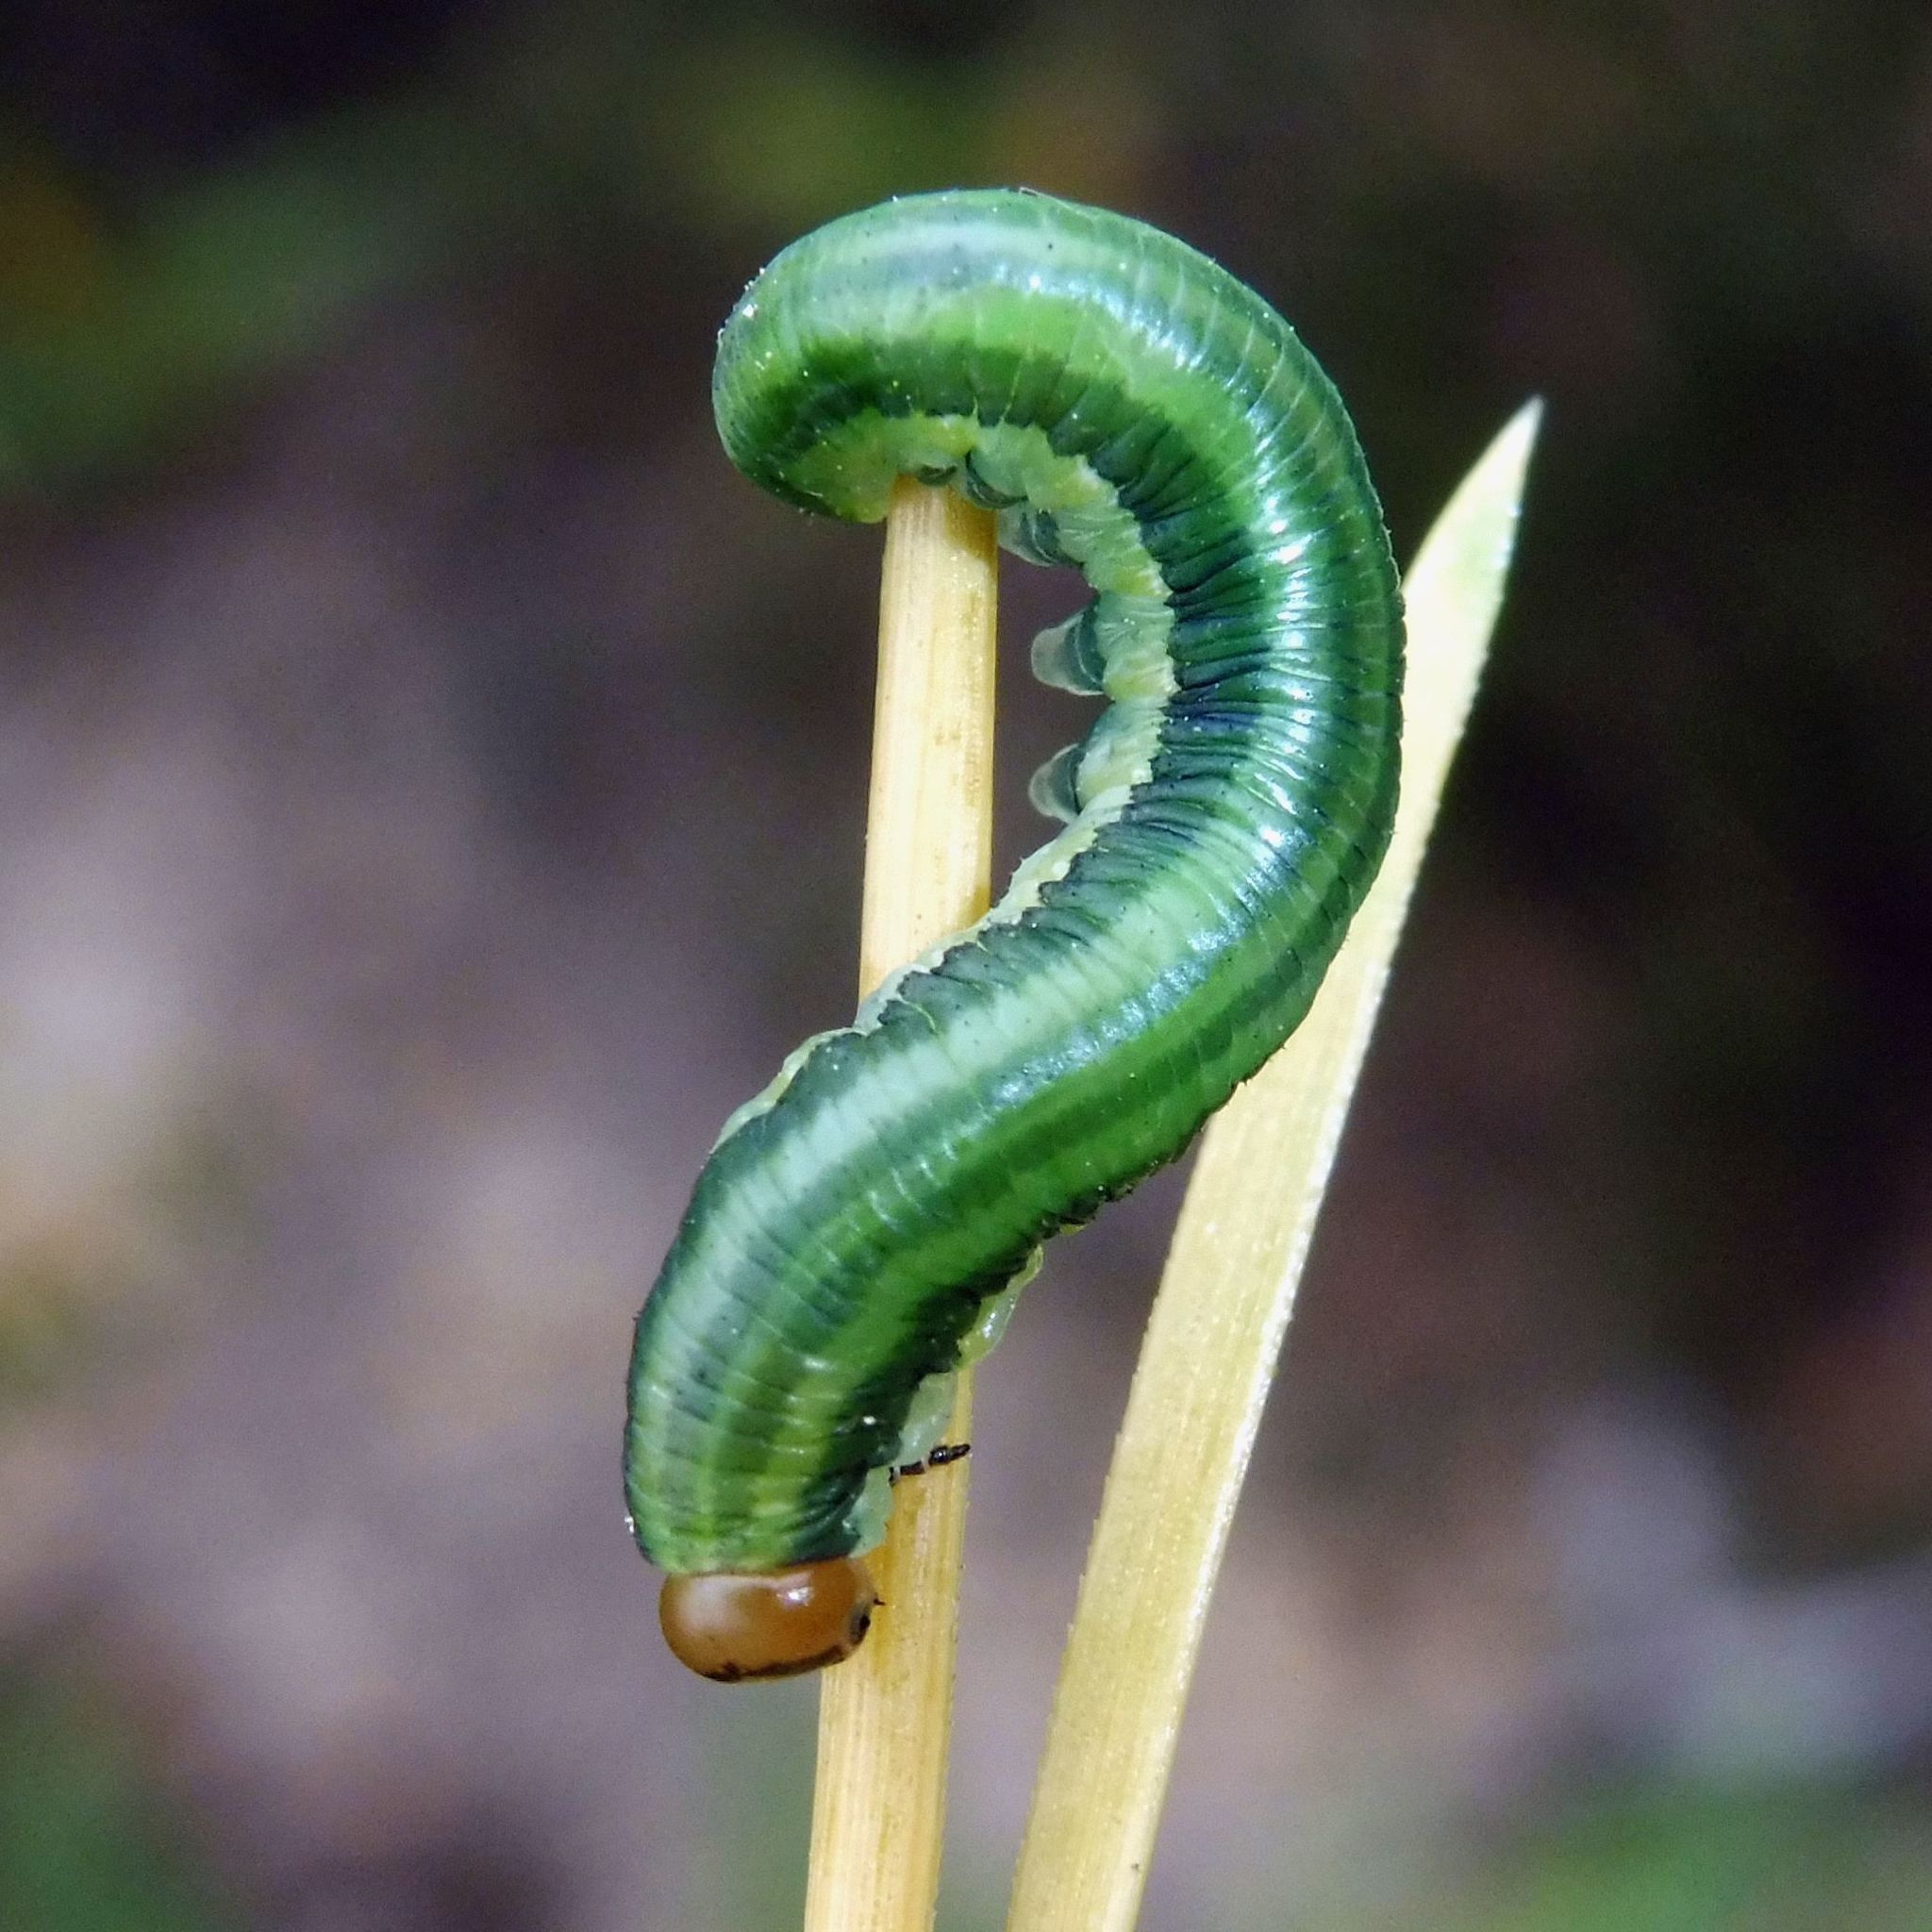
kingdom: Animalia
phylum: Arthropoda
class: Insecta
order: Hymenoptera
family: Diprionidae
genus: Gilpinia
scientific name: Gilpinia frutetorum
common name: Conifer sawfly
